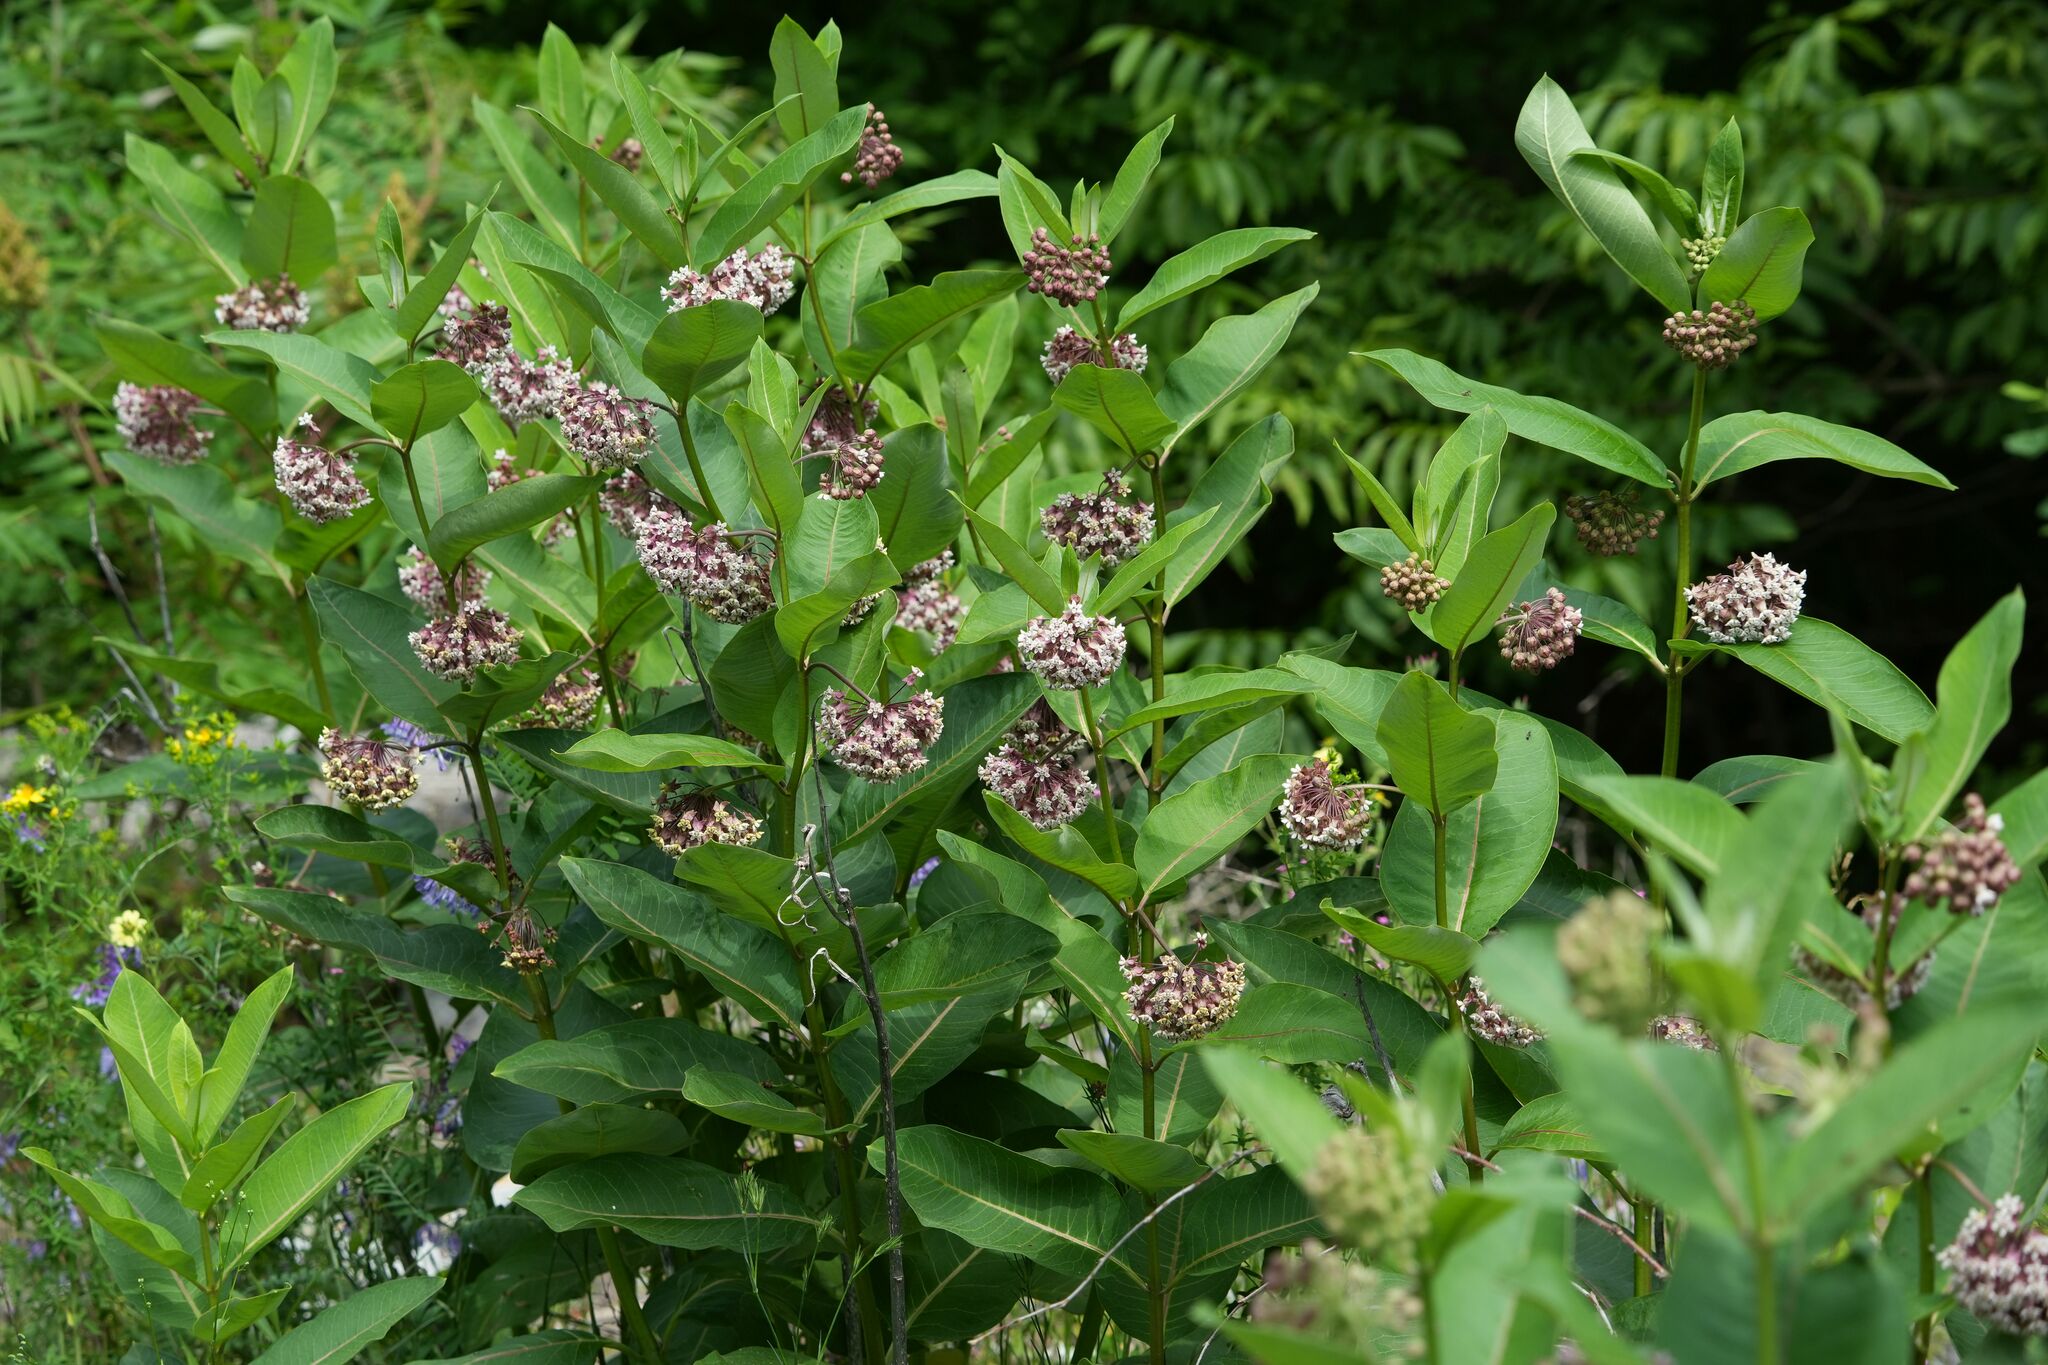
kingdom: Plantae
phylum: Tracheophyta
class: Magnoliopsida
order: Gentianales
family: Apocynaceae
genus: Asclepias
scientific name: Asclepias syriaca
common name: Common milkweed
